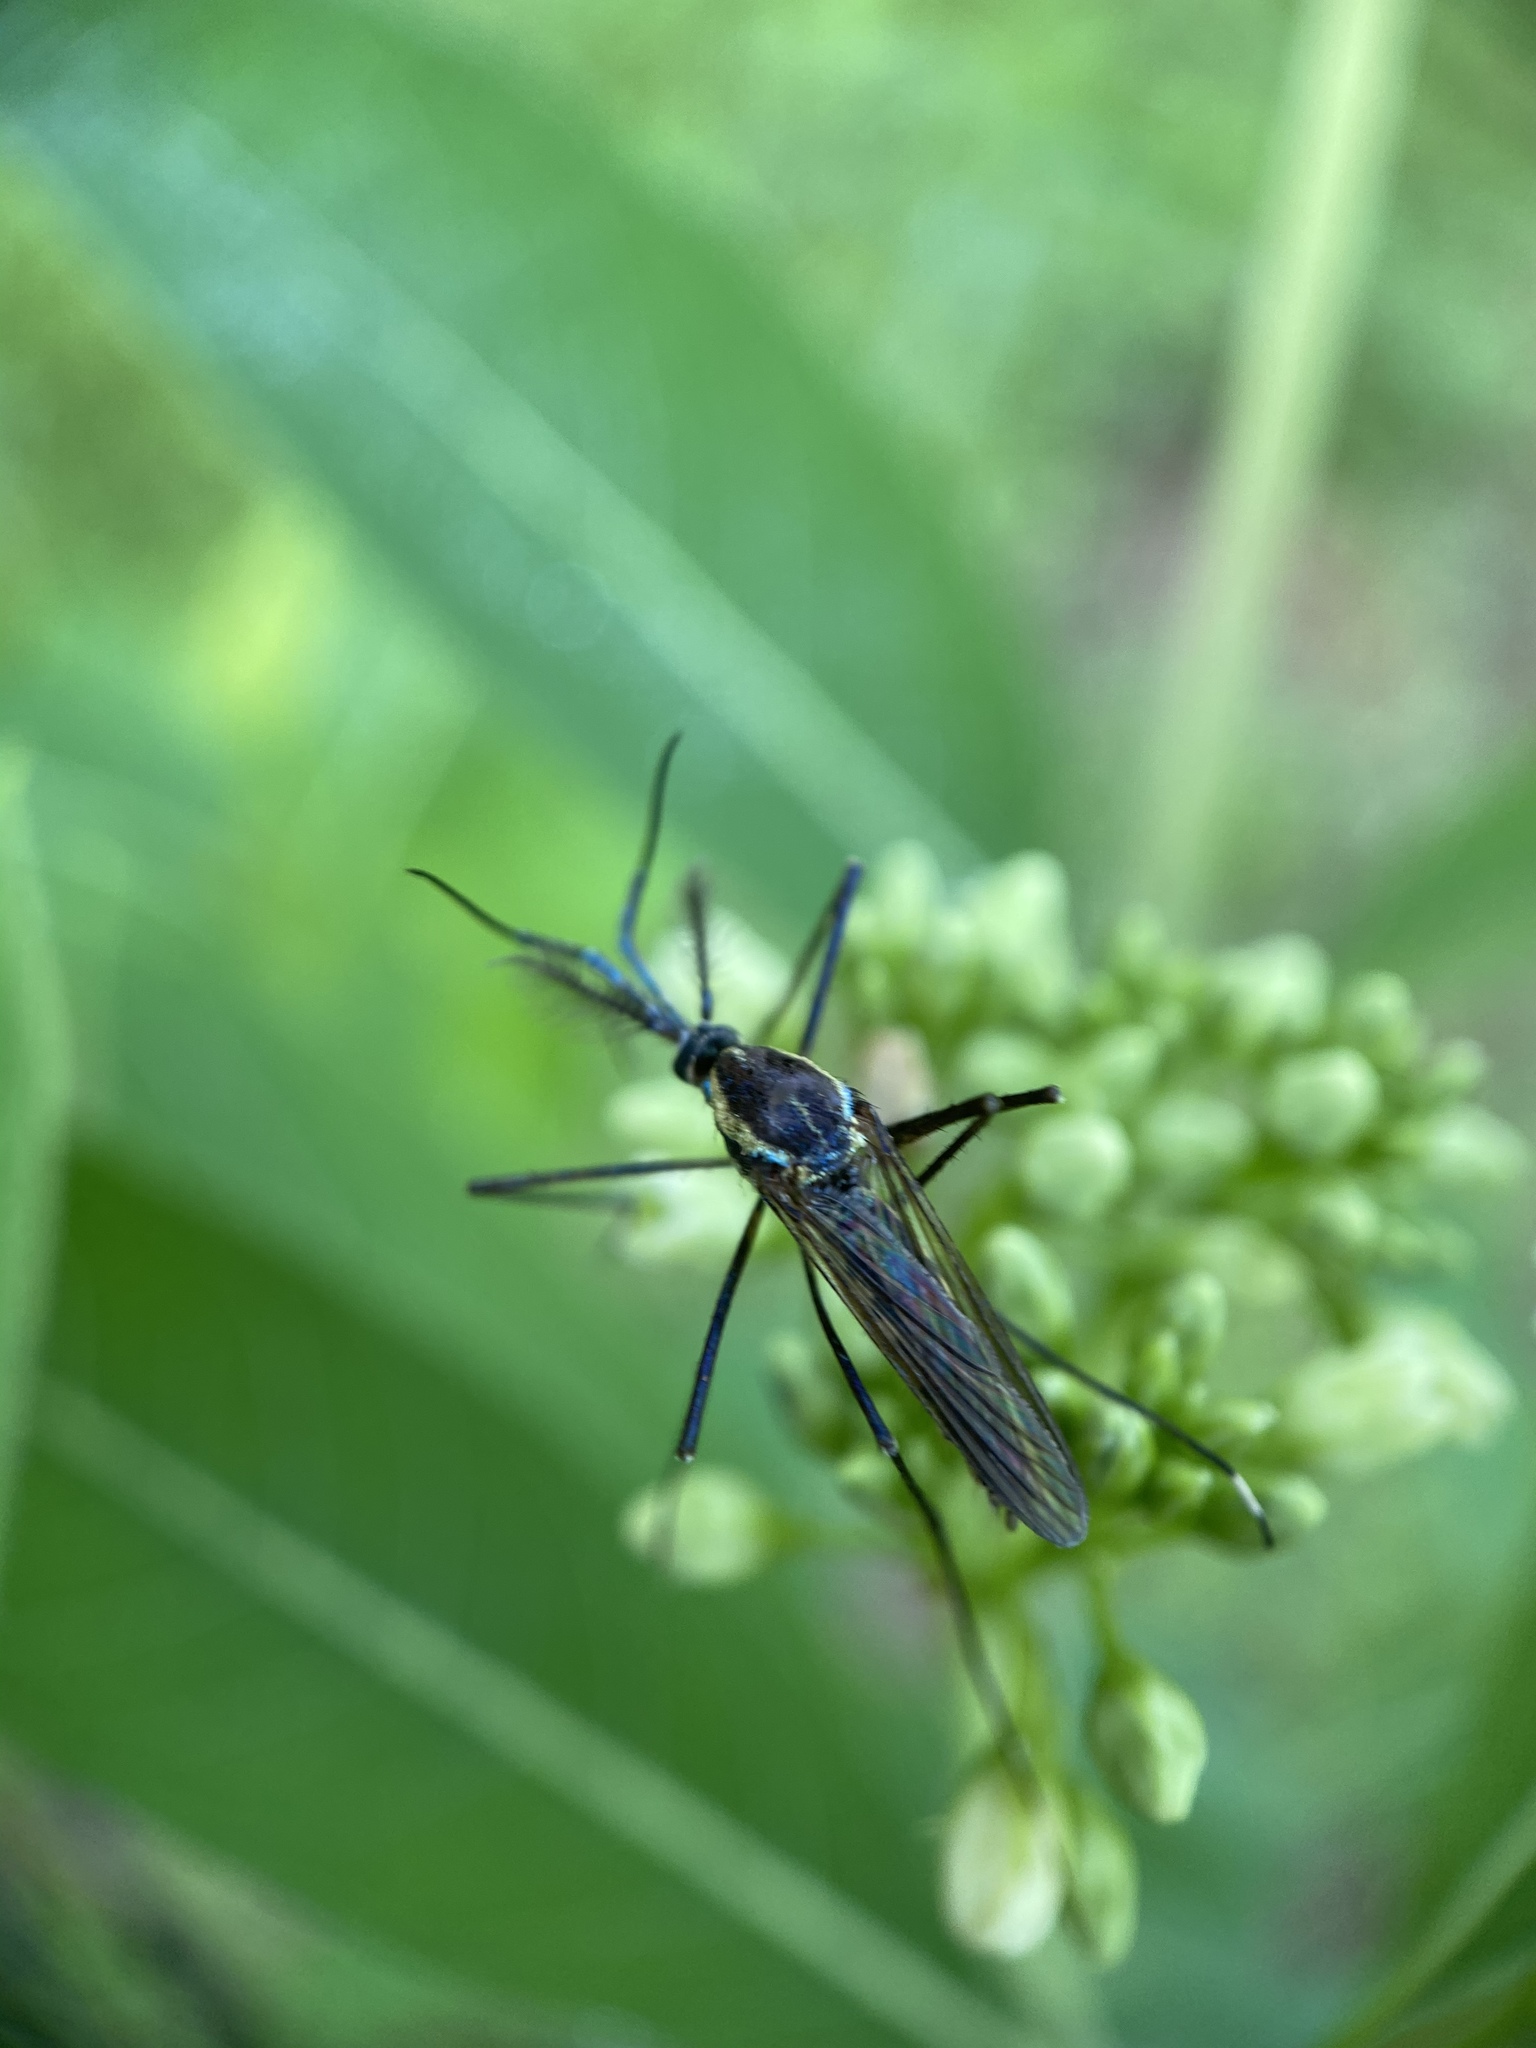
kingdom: Animalia
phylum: Arthropoda
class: Insecta
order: Diptera
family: Culicidae
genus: Toxorhynchites
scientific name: Toxorhynchites rutilus
